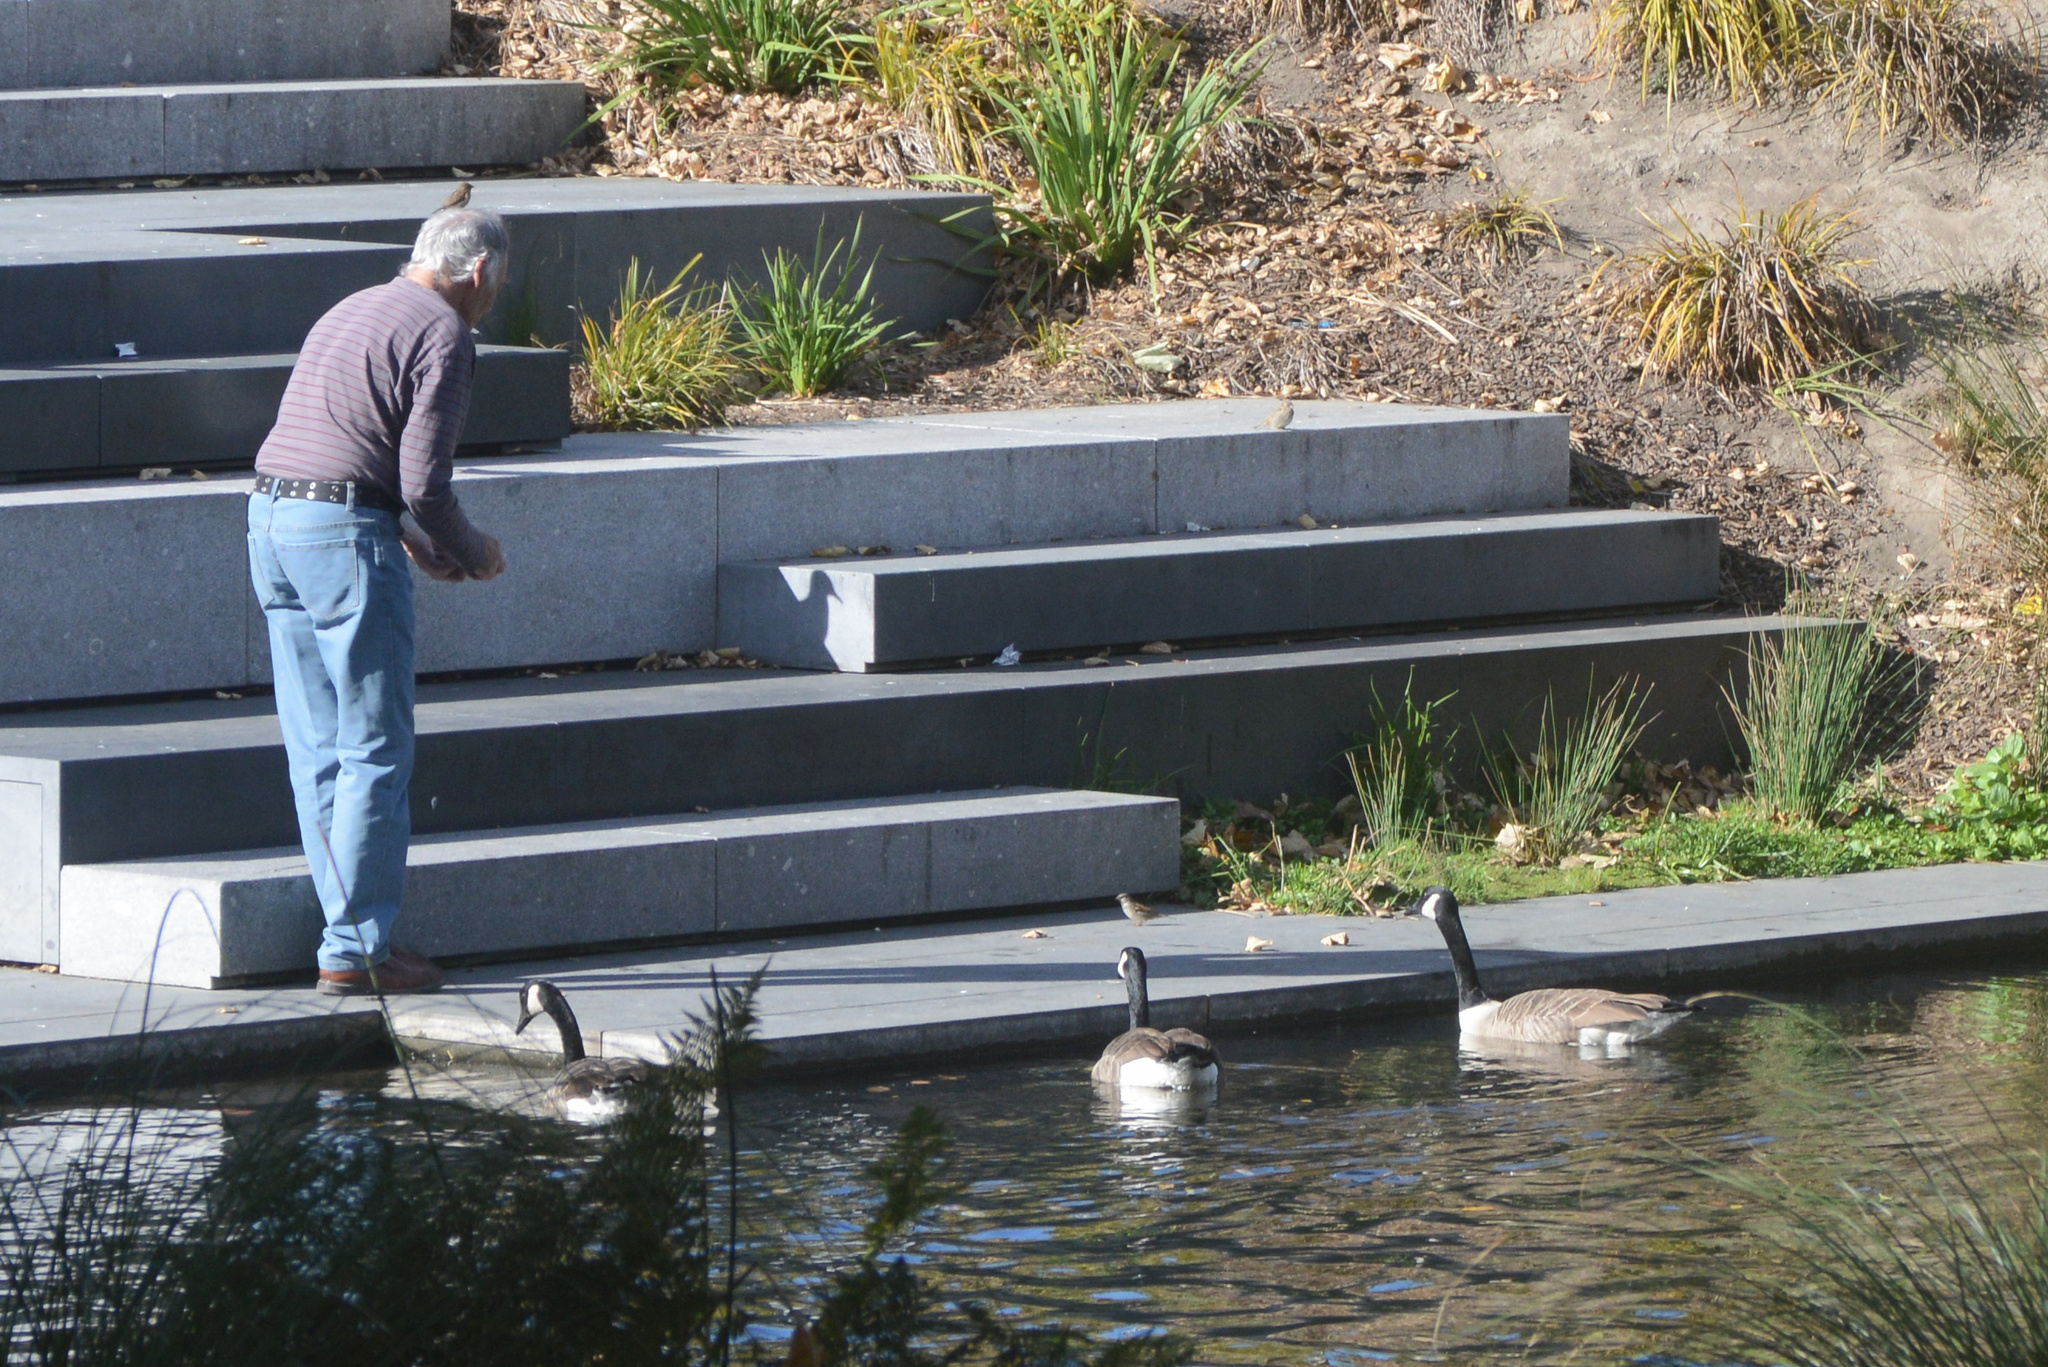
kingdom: Animalia
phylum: Chordata
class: Aves
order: Anseriformes
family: Anatidae
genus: Branta
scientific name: Branta canadensis
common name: Canada goose
